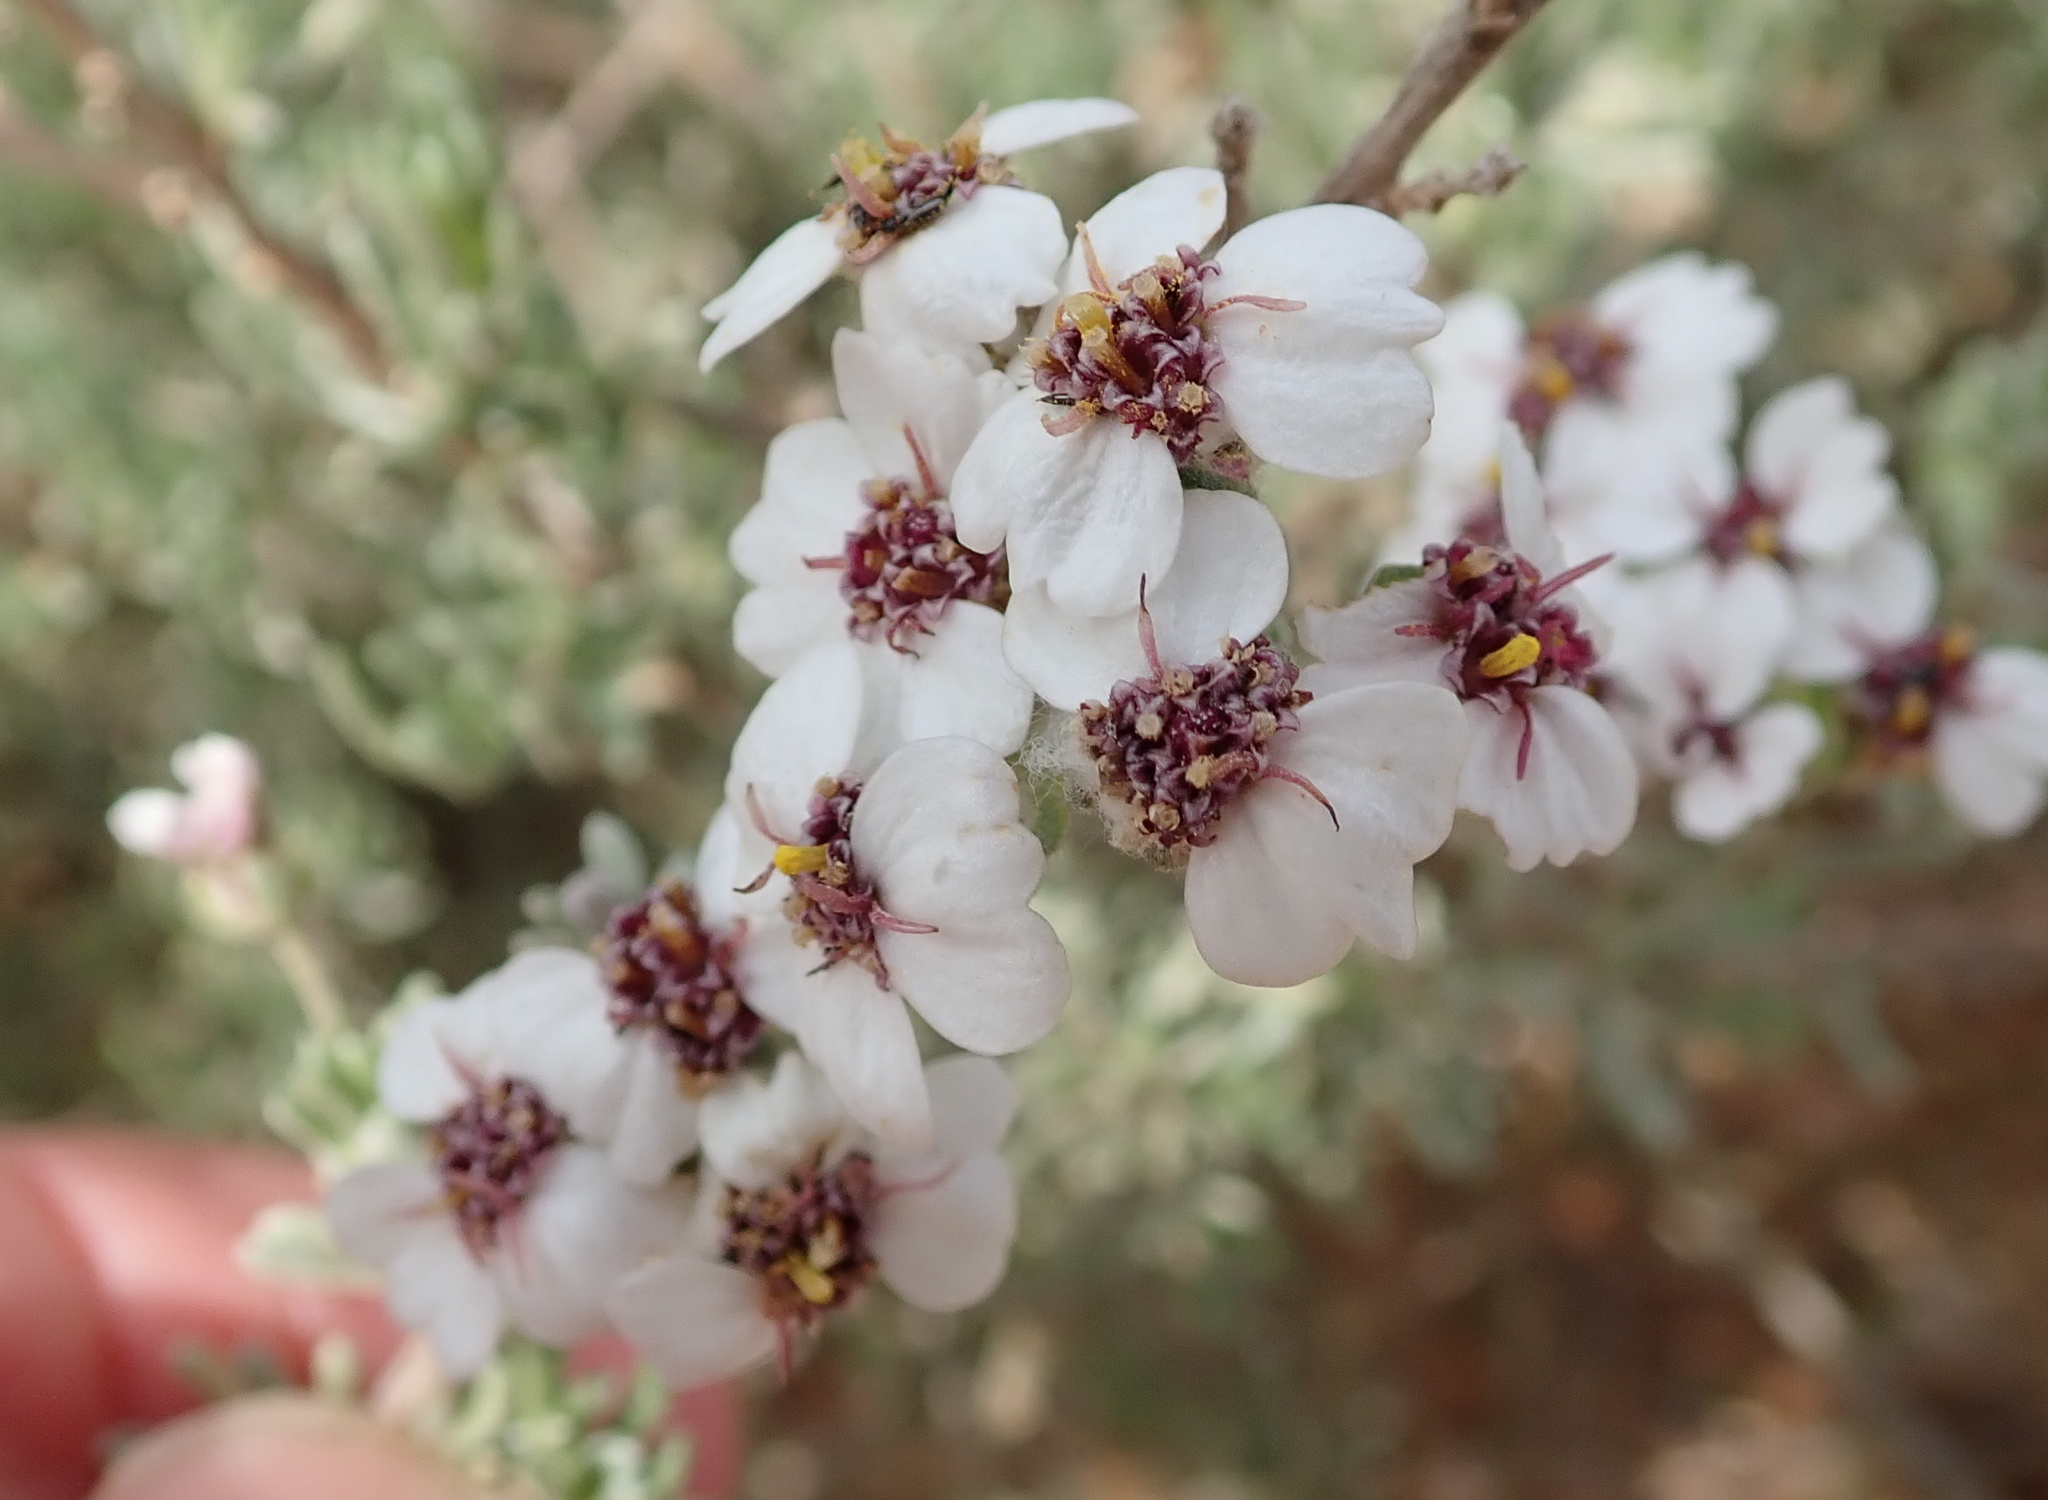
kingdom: Plantae
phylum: Tracheophyta
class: Magnoliopsida
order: Asterales
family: Asteraceae
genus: Eriocephalus
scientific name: Eriocephalus africanus
